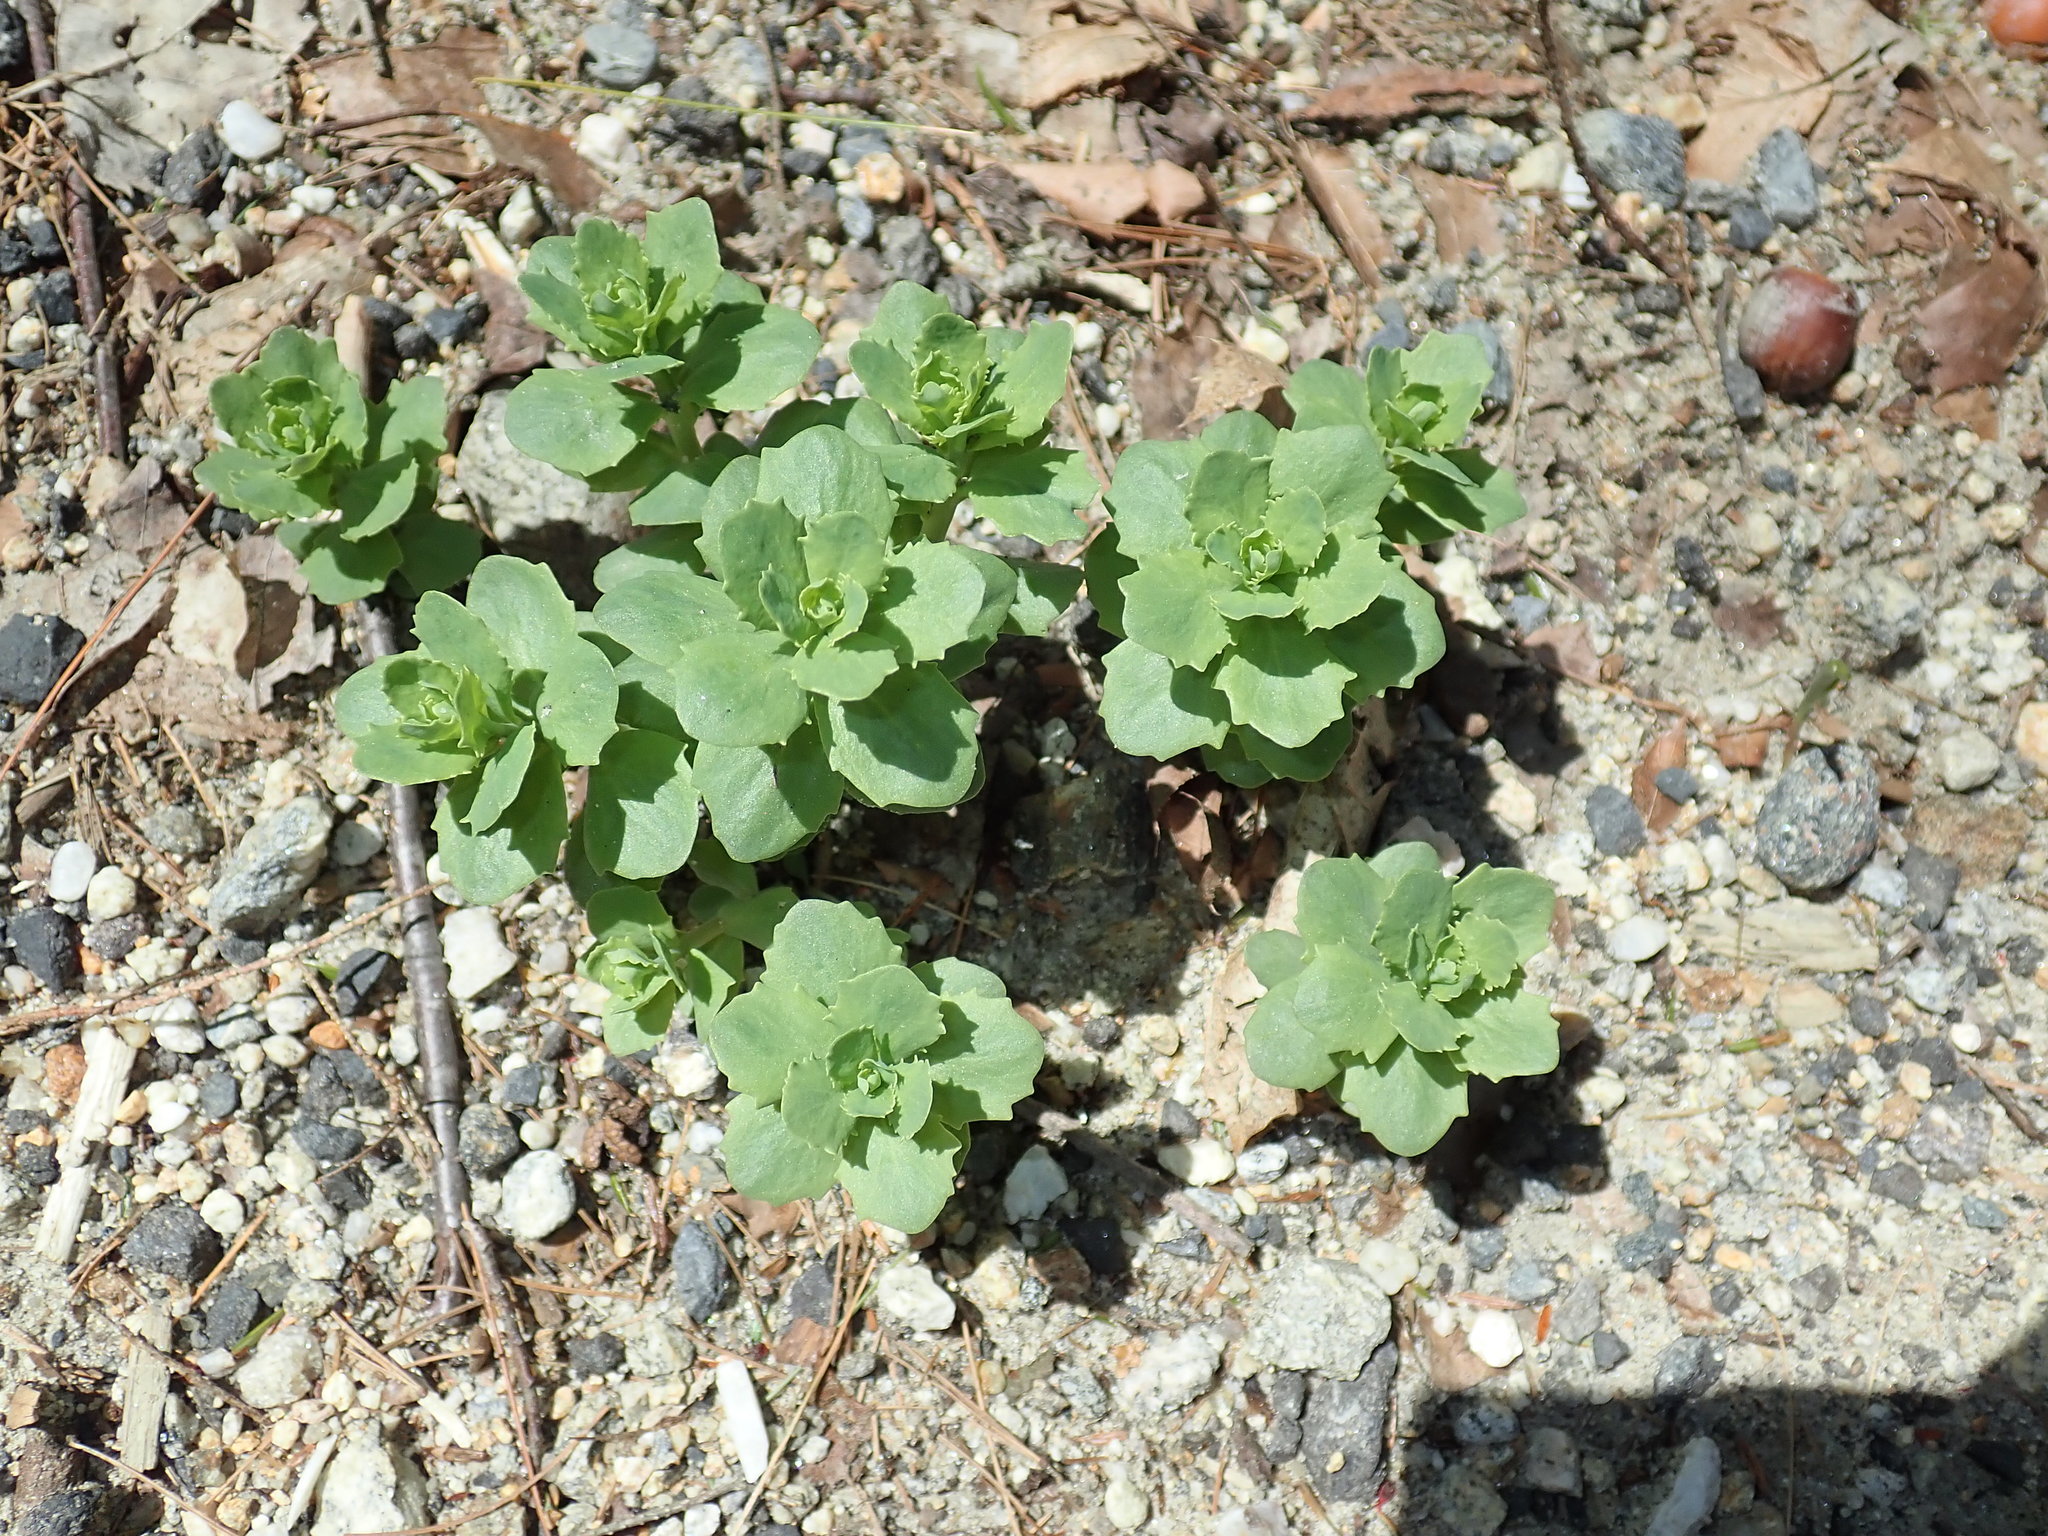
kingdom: Plantae
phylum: Tracheophyta
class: Magnoliopsida
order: Saxifragales
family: Crassulaceae
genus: Hylotelephium
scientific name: Hylotelephium telephium
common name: Live-forever
